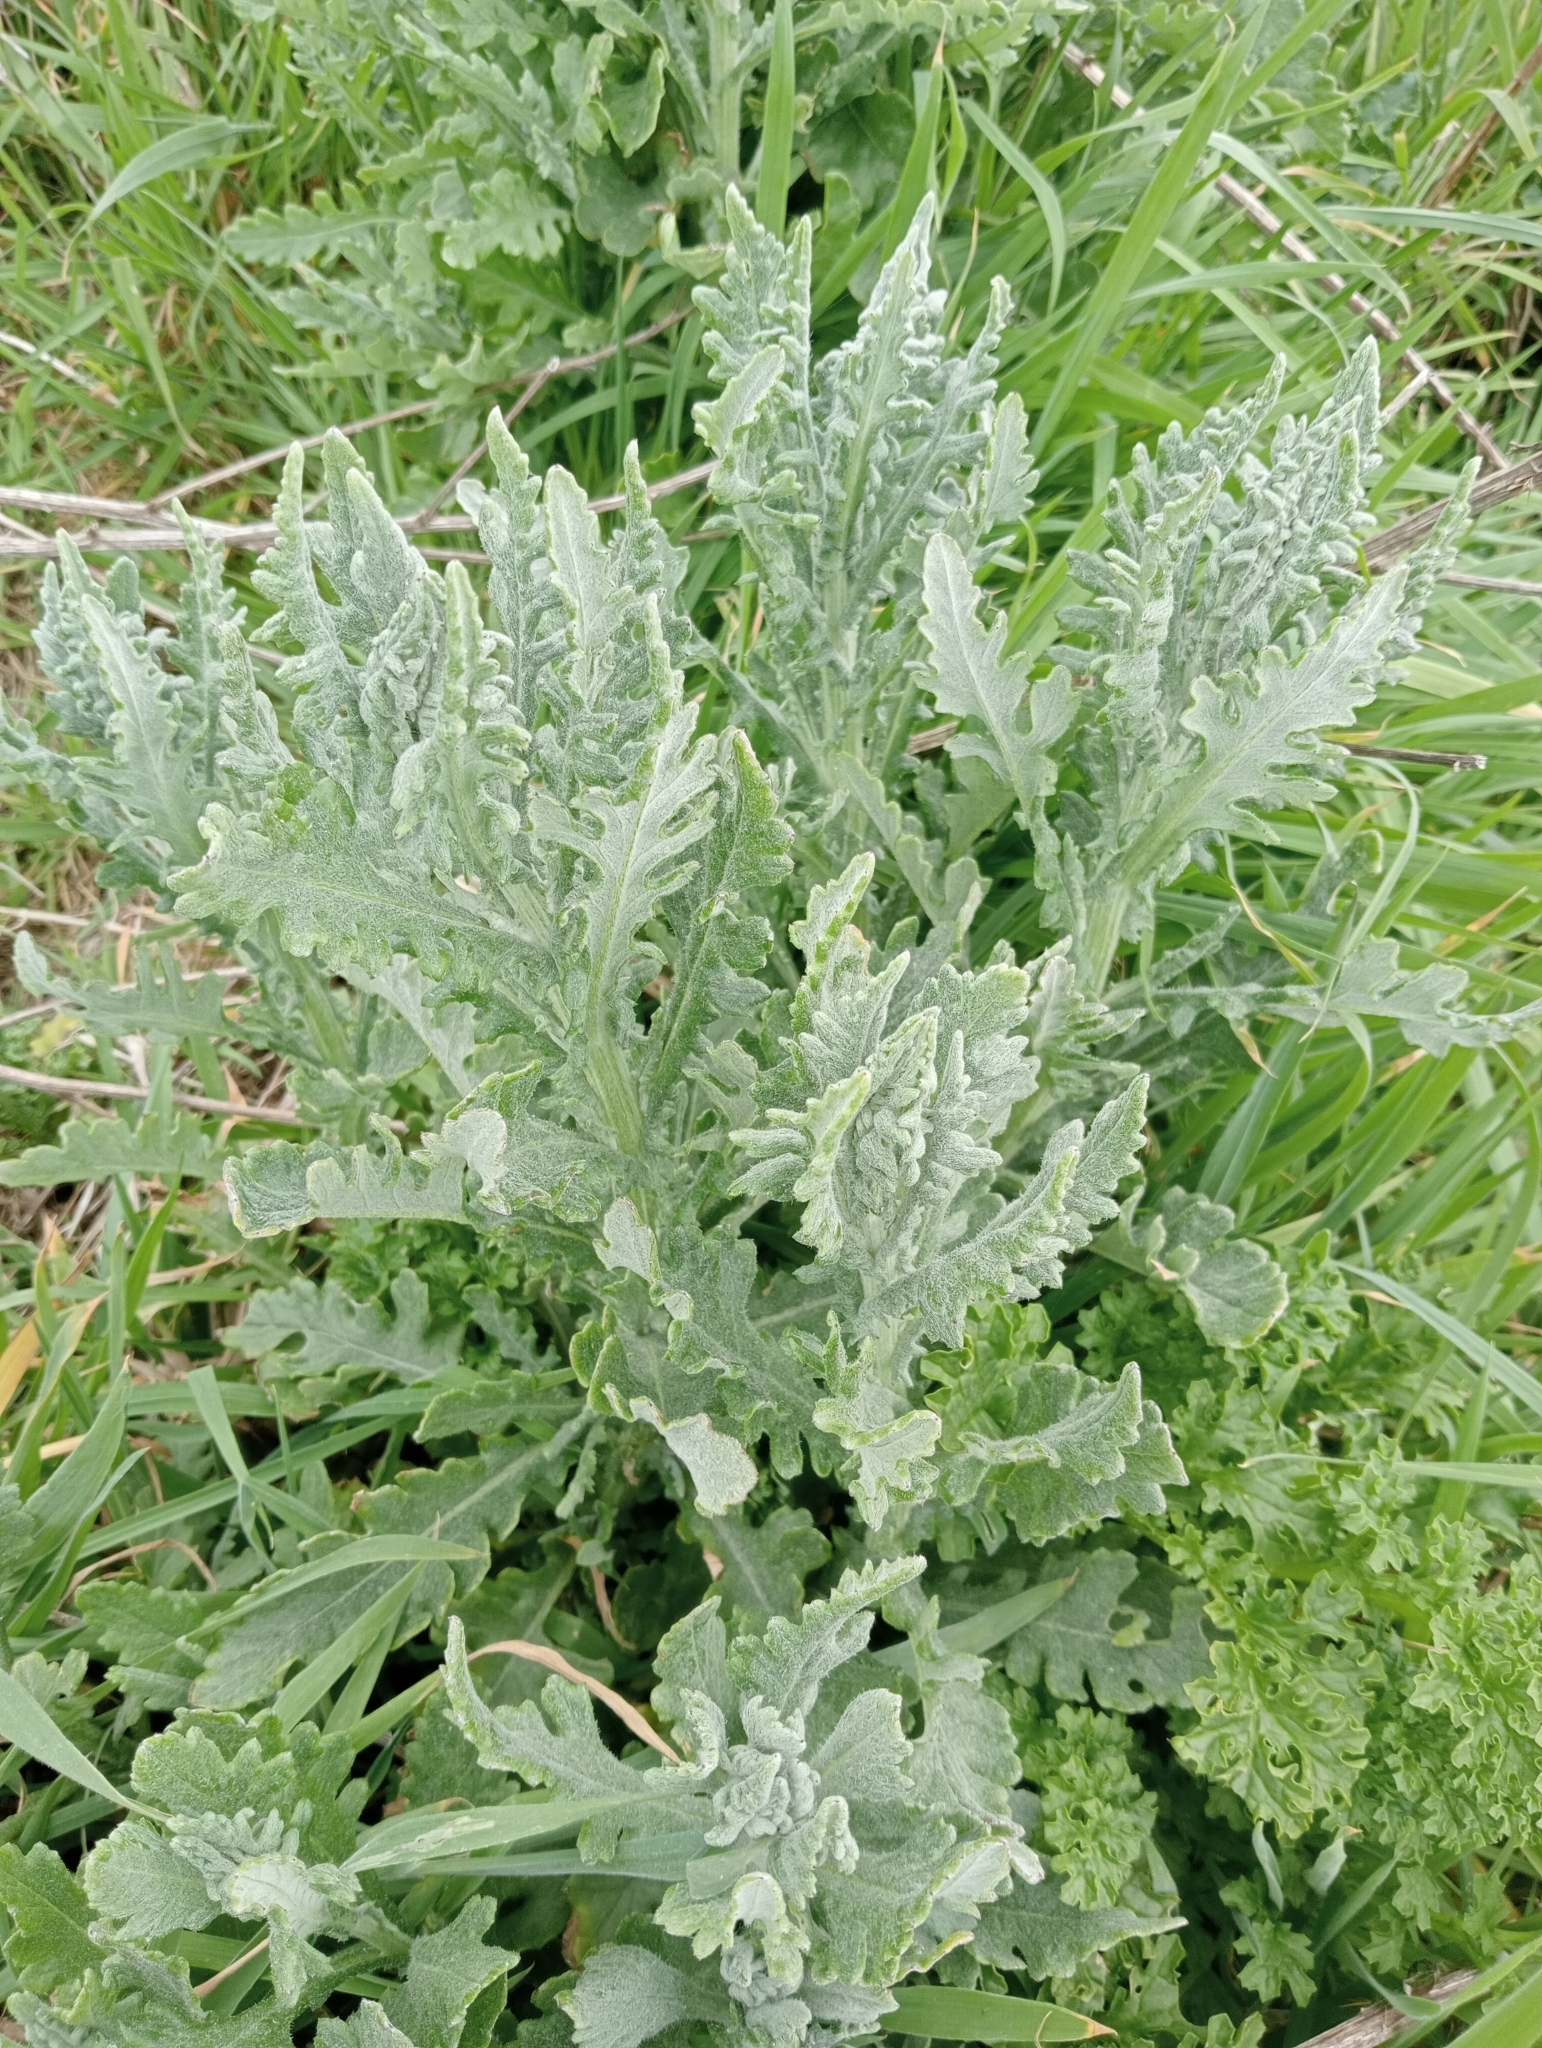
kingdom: Plantae
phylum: Tracheophyta
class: Magnoliopsida
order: Asterales
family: Asteraceae
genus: Senecio
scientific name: Senecio glomeratus
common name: Cutleaf burnweed
